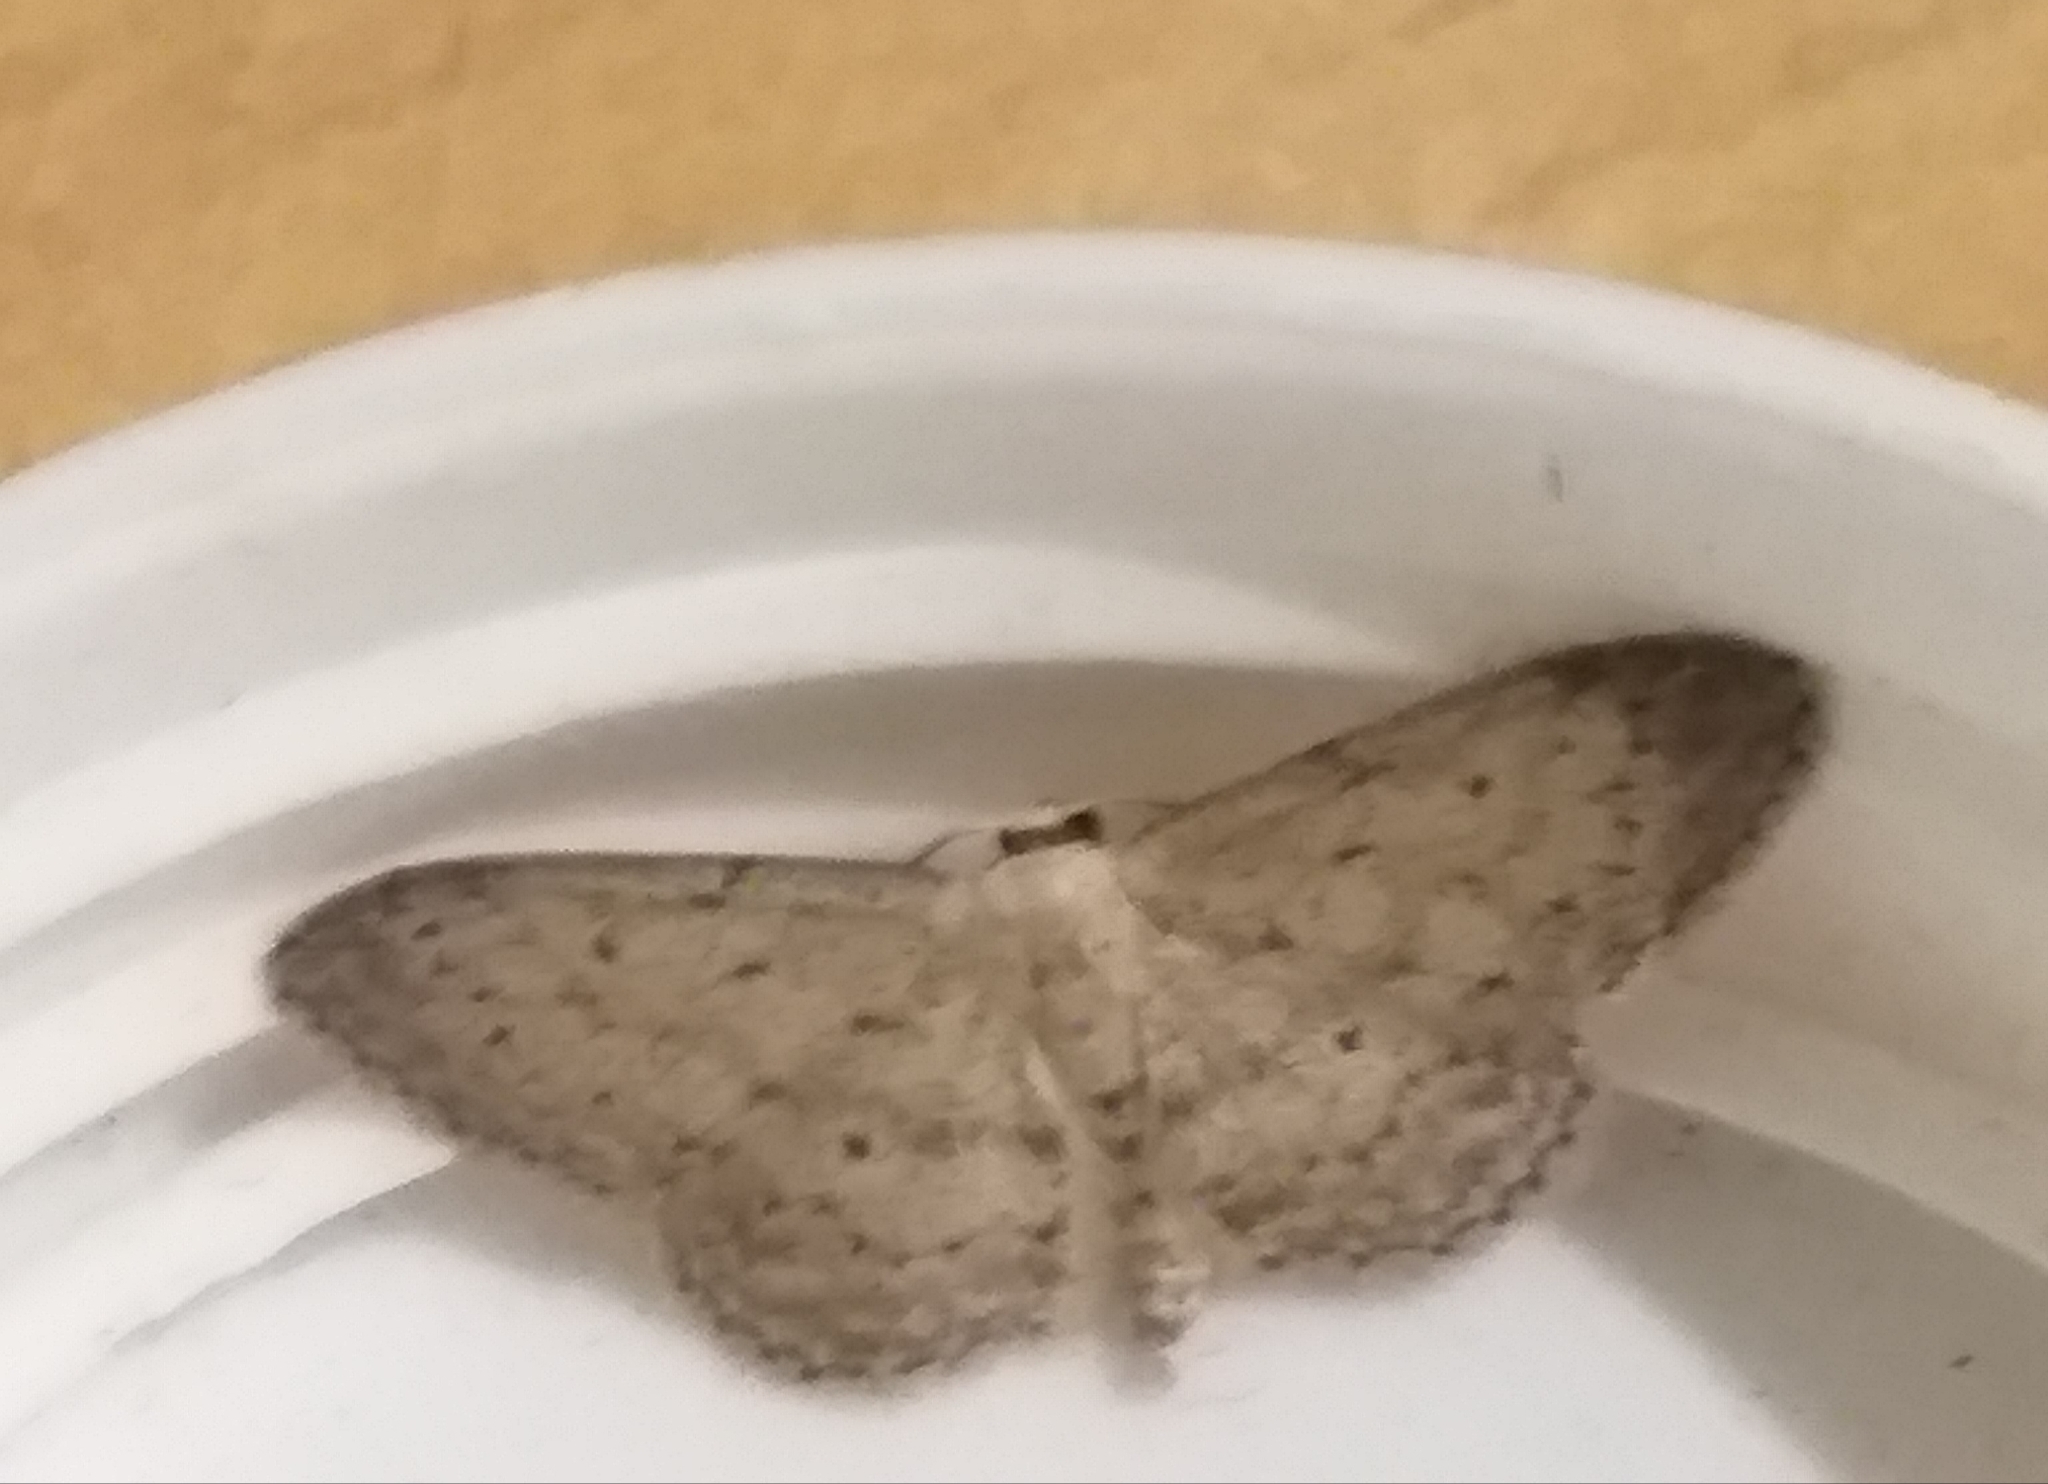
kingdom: Animalia
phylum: Arthropoda
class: Insecta
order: Lepidoptera
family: Geometridae
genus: Idaea
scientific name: Idaea seriata
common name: Small dusty wave
